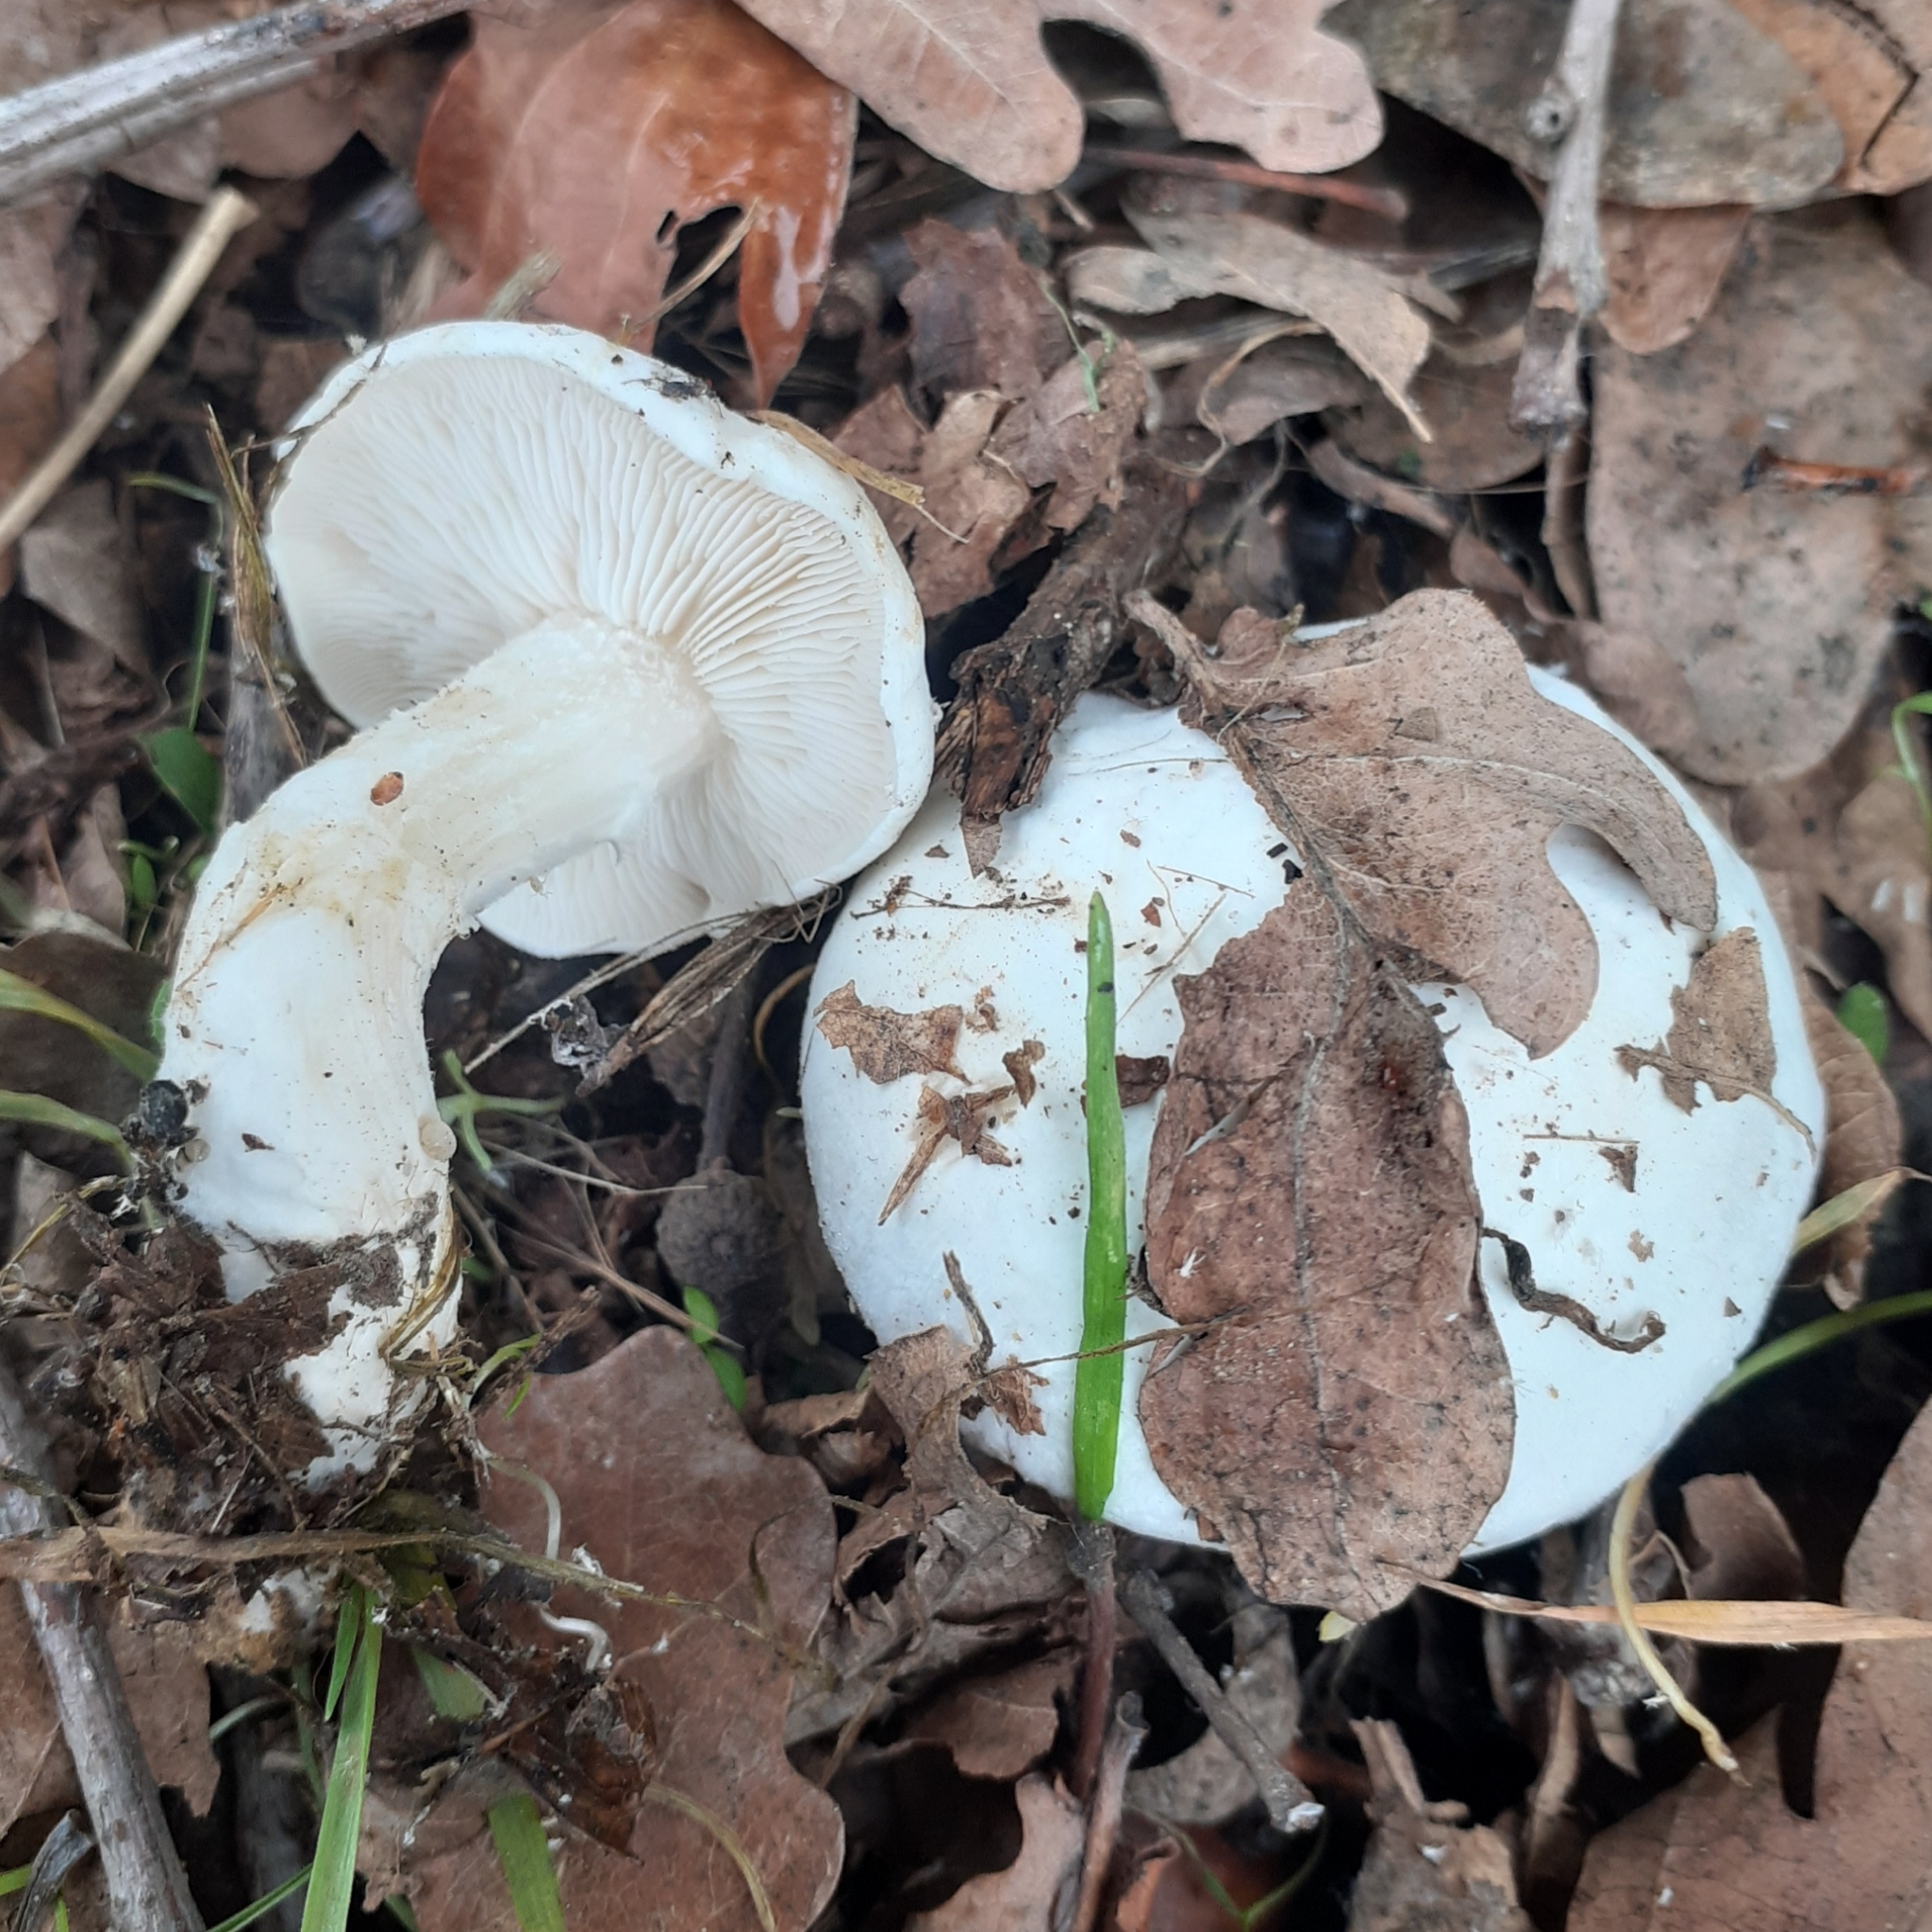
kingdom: Fungi
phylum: Basidiomycota
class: Agaricomycetes
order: Agaricales
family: Lyophyllaceae
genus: Tricholomella
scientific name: Tricholomella constricta
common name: Mealy domecap
